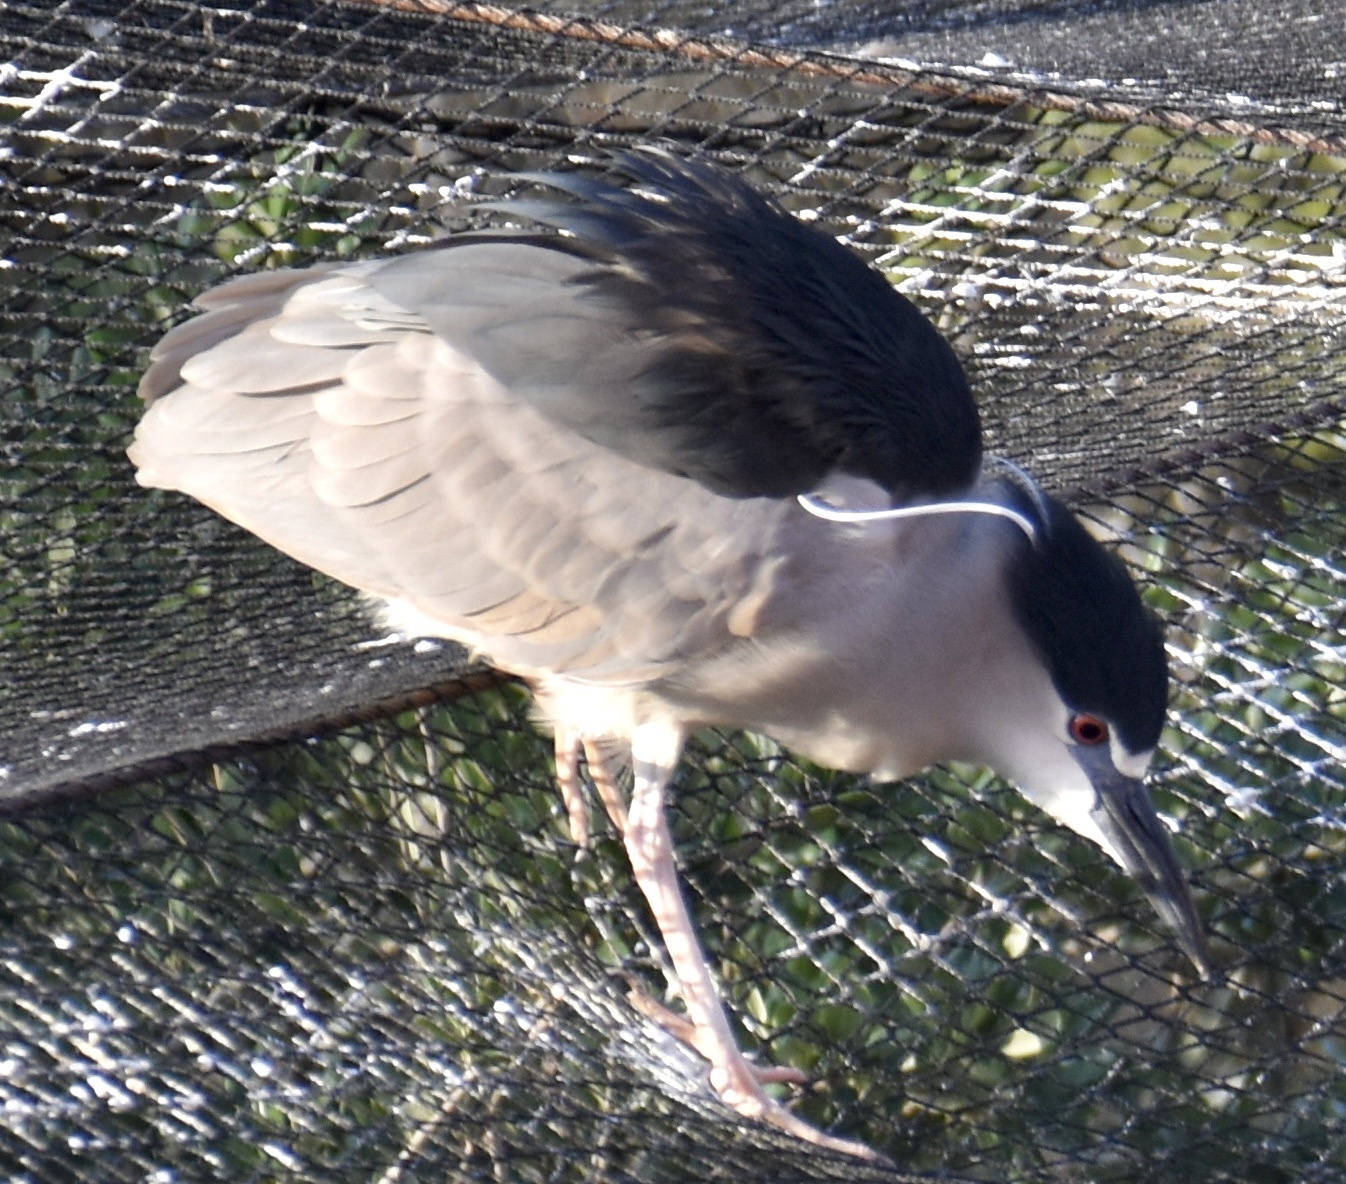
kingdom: Animalia
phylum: Chordata
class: Aves
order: Pelecaniformes
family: Ardeidae
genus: Nycticorax
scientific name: Nycticorax nycticorax
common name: Black-crowned night heron
